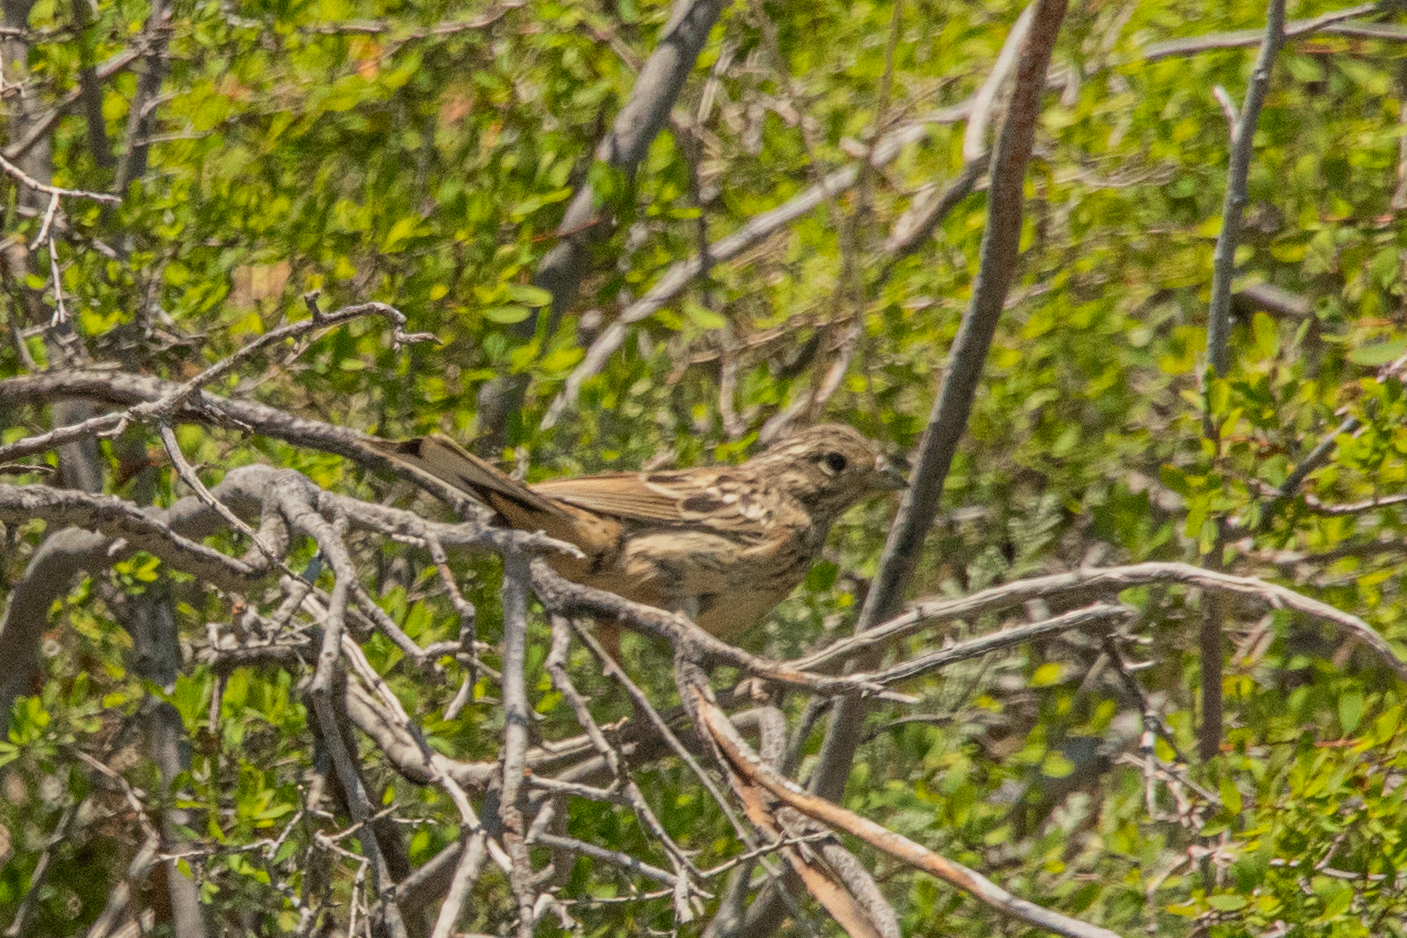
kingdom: Animalia
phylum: Chordata
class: Aves
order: Passeriformes
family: Emberizidae
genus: Emberiza
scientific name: Emberiza cia
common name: Rock bunting
